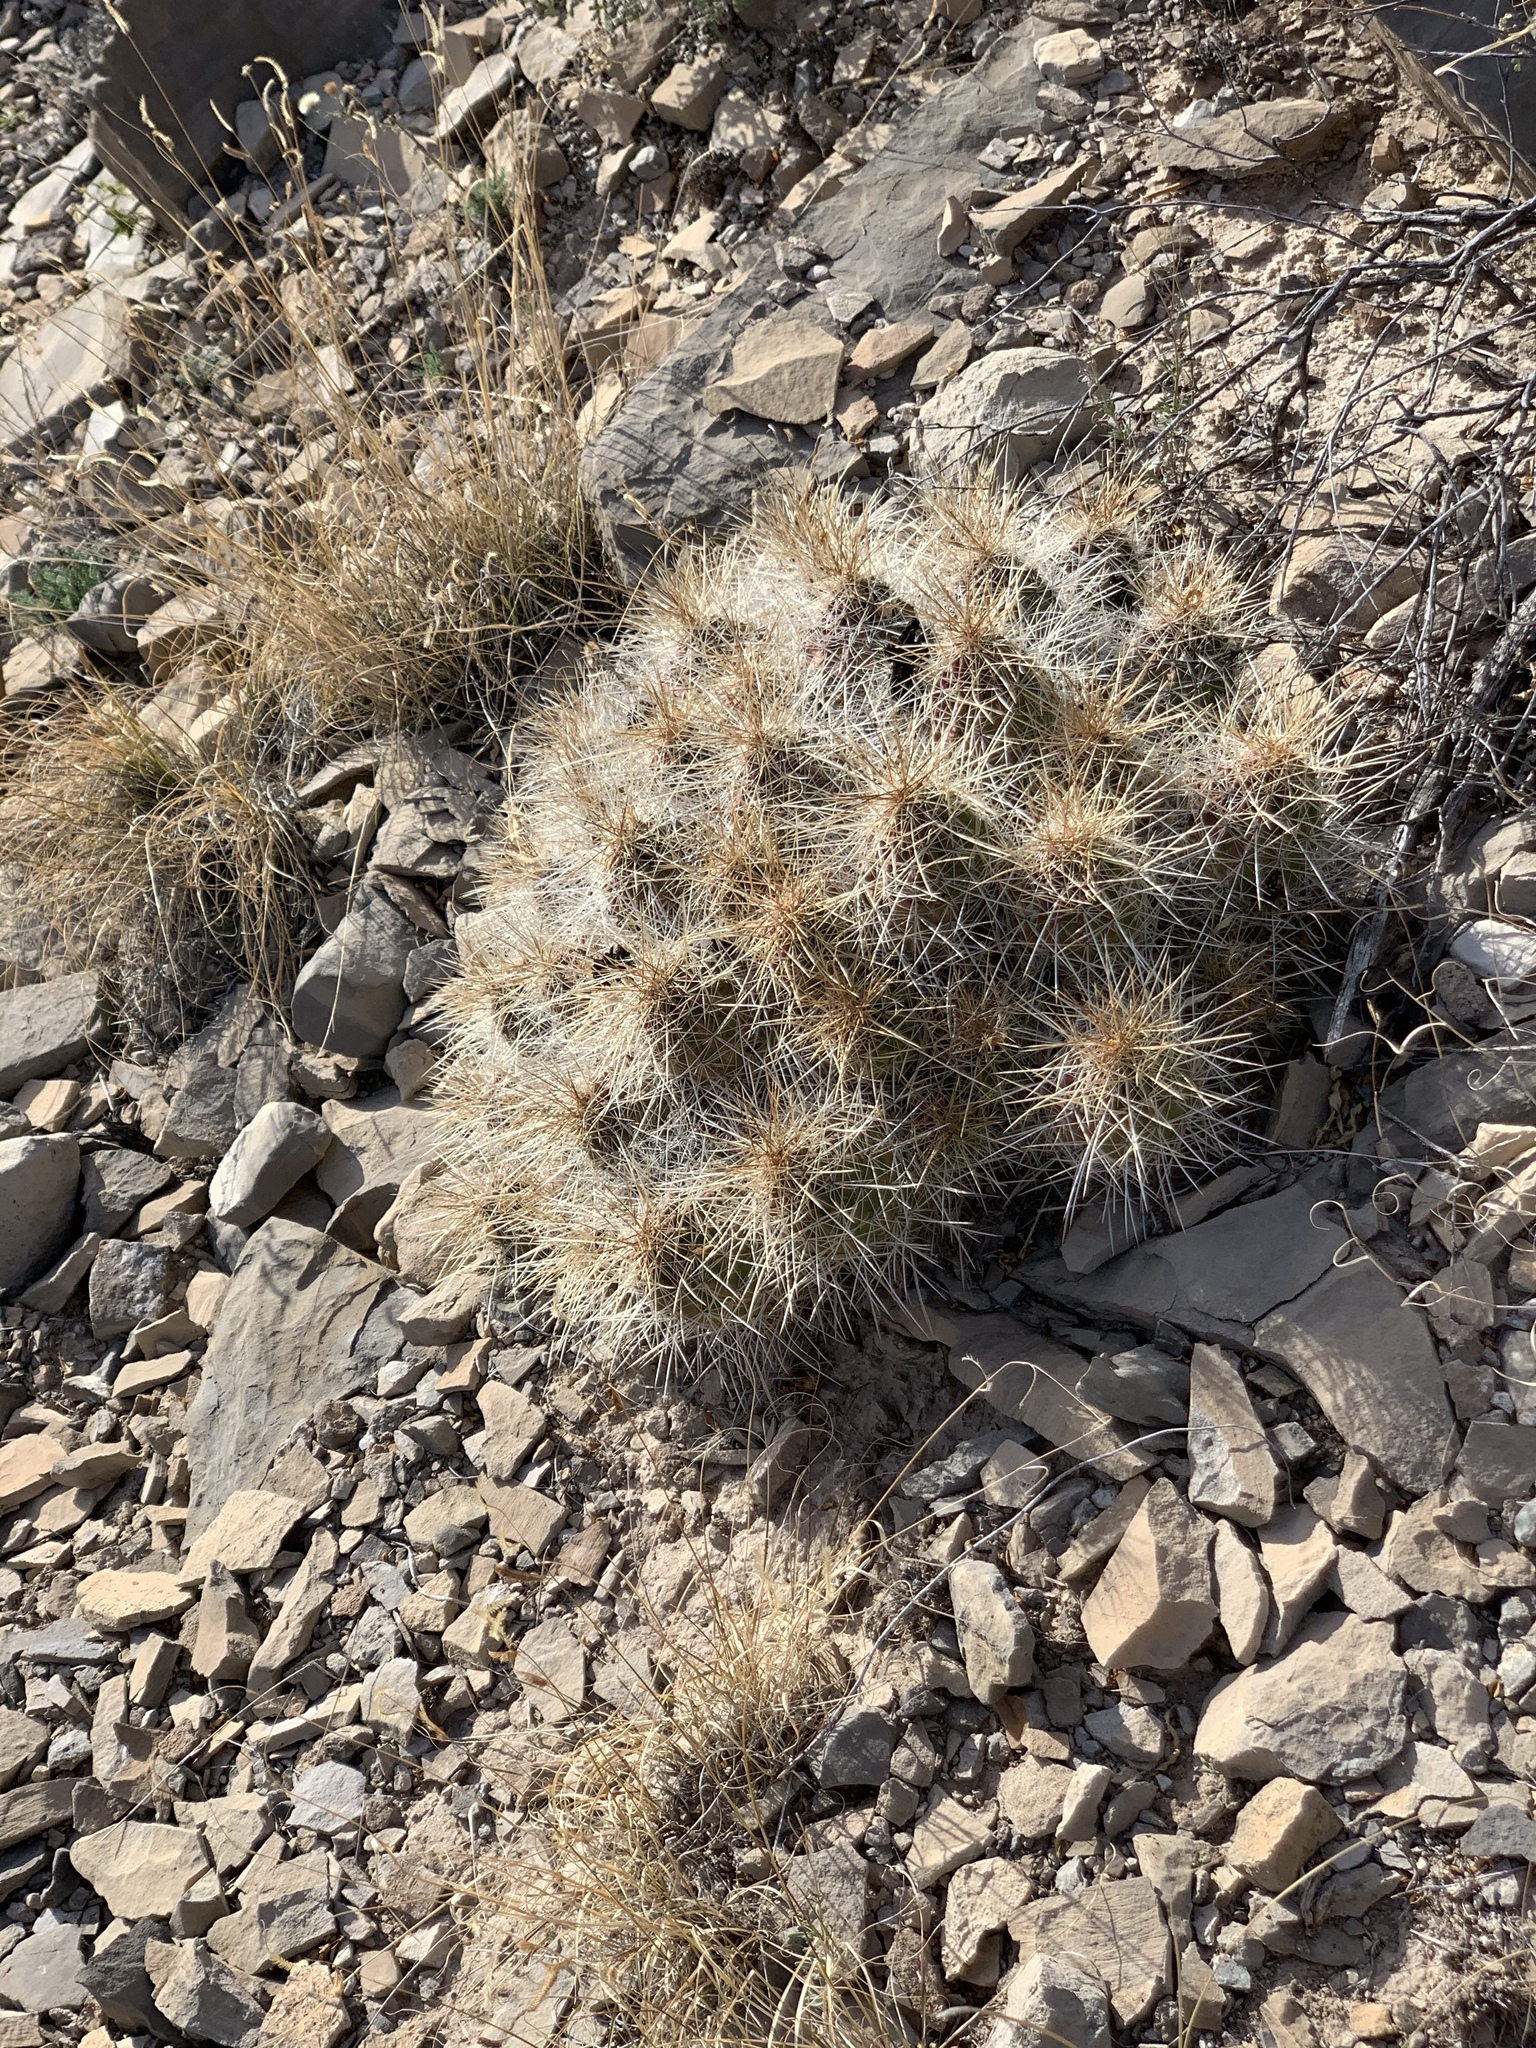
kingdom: Plantae
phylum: Tracheophyta
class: Magnoliopsida
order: Caryophyllales
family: Cactaceae
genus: Echinocereus
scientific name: Echinocereus stramineus
